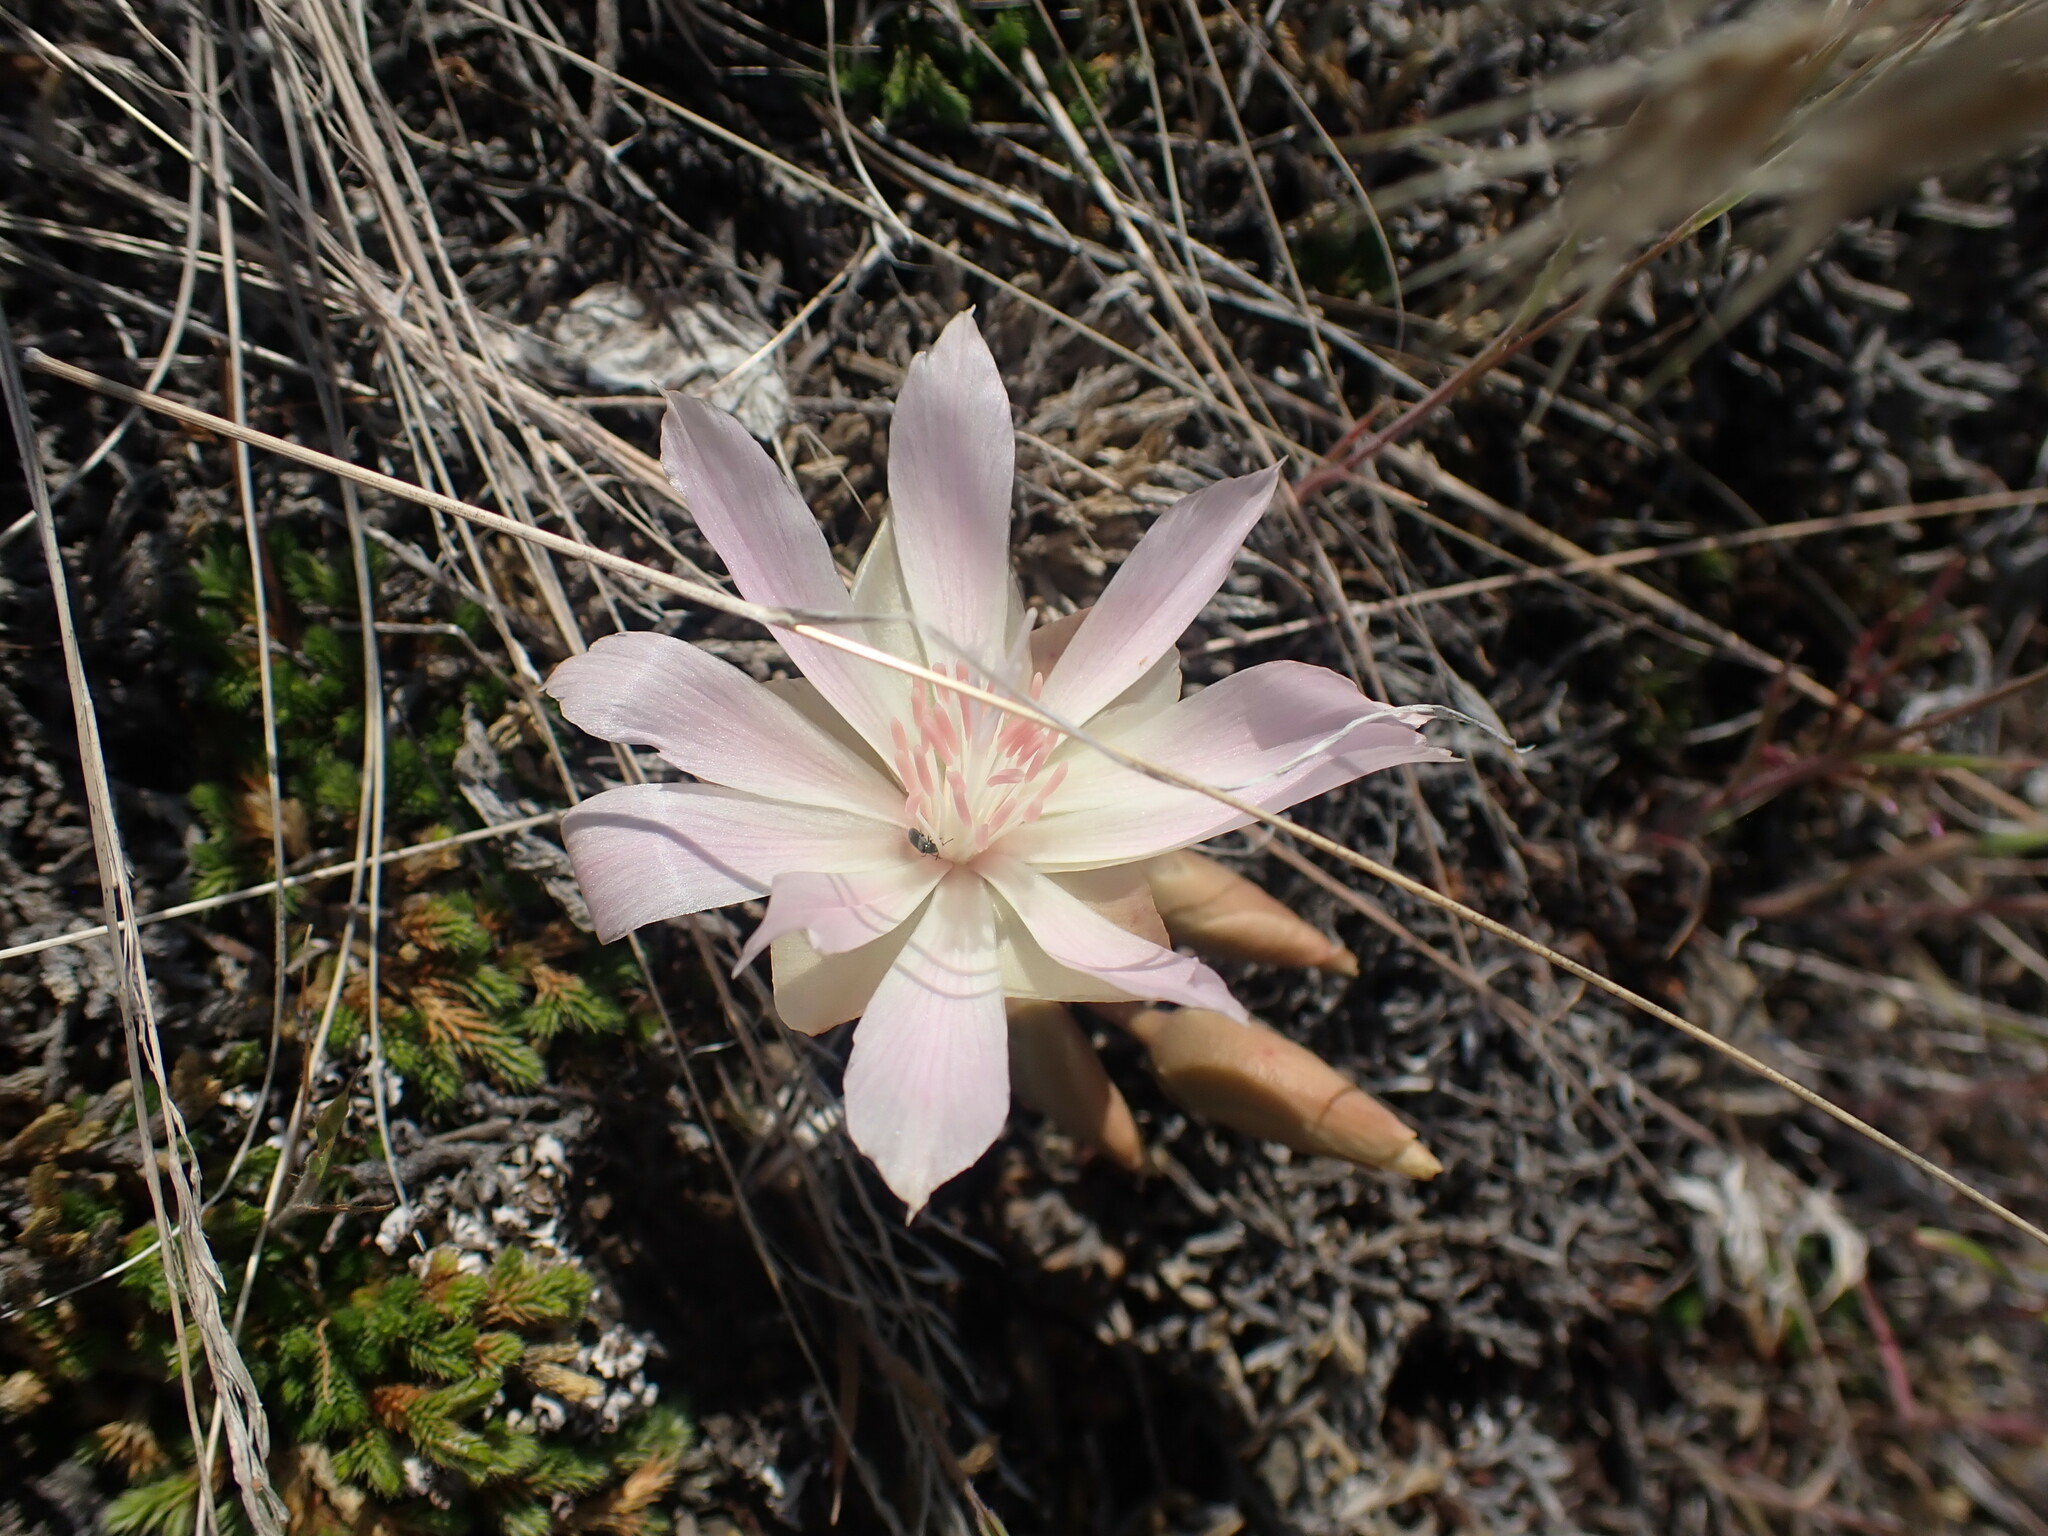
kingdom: Plantae
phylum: Tracheophyta
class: Magnoliopsida
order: Caryophyllales
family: Montiaceae
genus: Lewisia
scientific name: Lewisia rediviva
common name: Bitter-root
